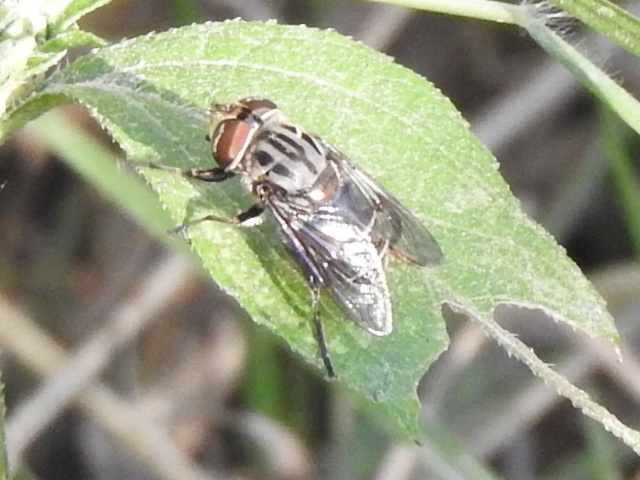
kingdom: Animalia
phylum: Arthropoda
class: Insecta
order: Diptera
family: Syrphidae
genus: Palpada
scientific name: Palpada furcata
